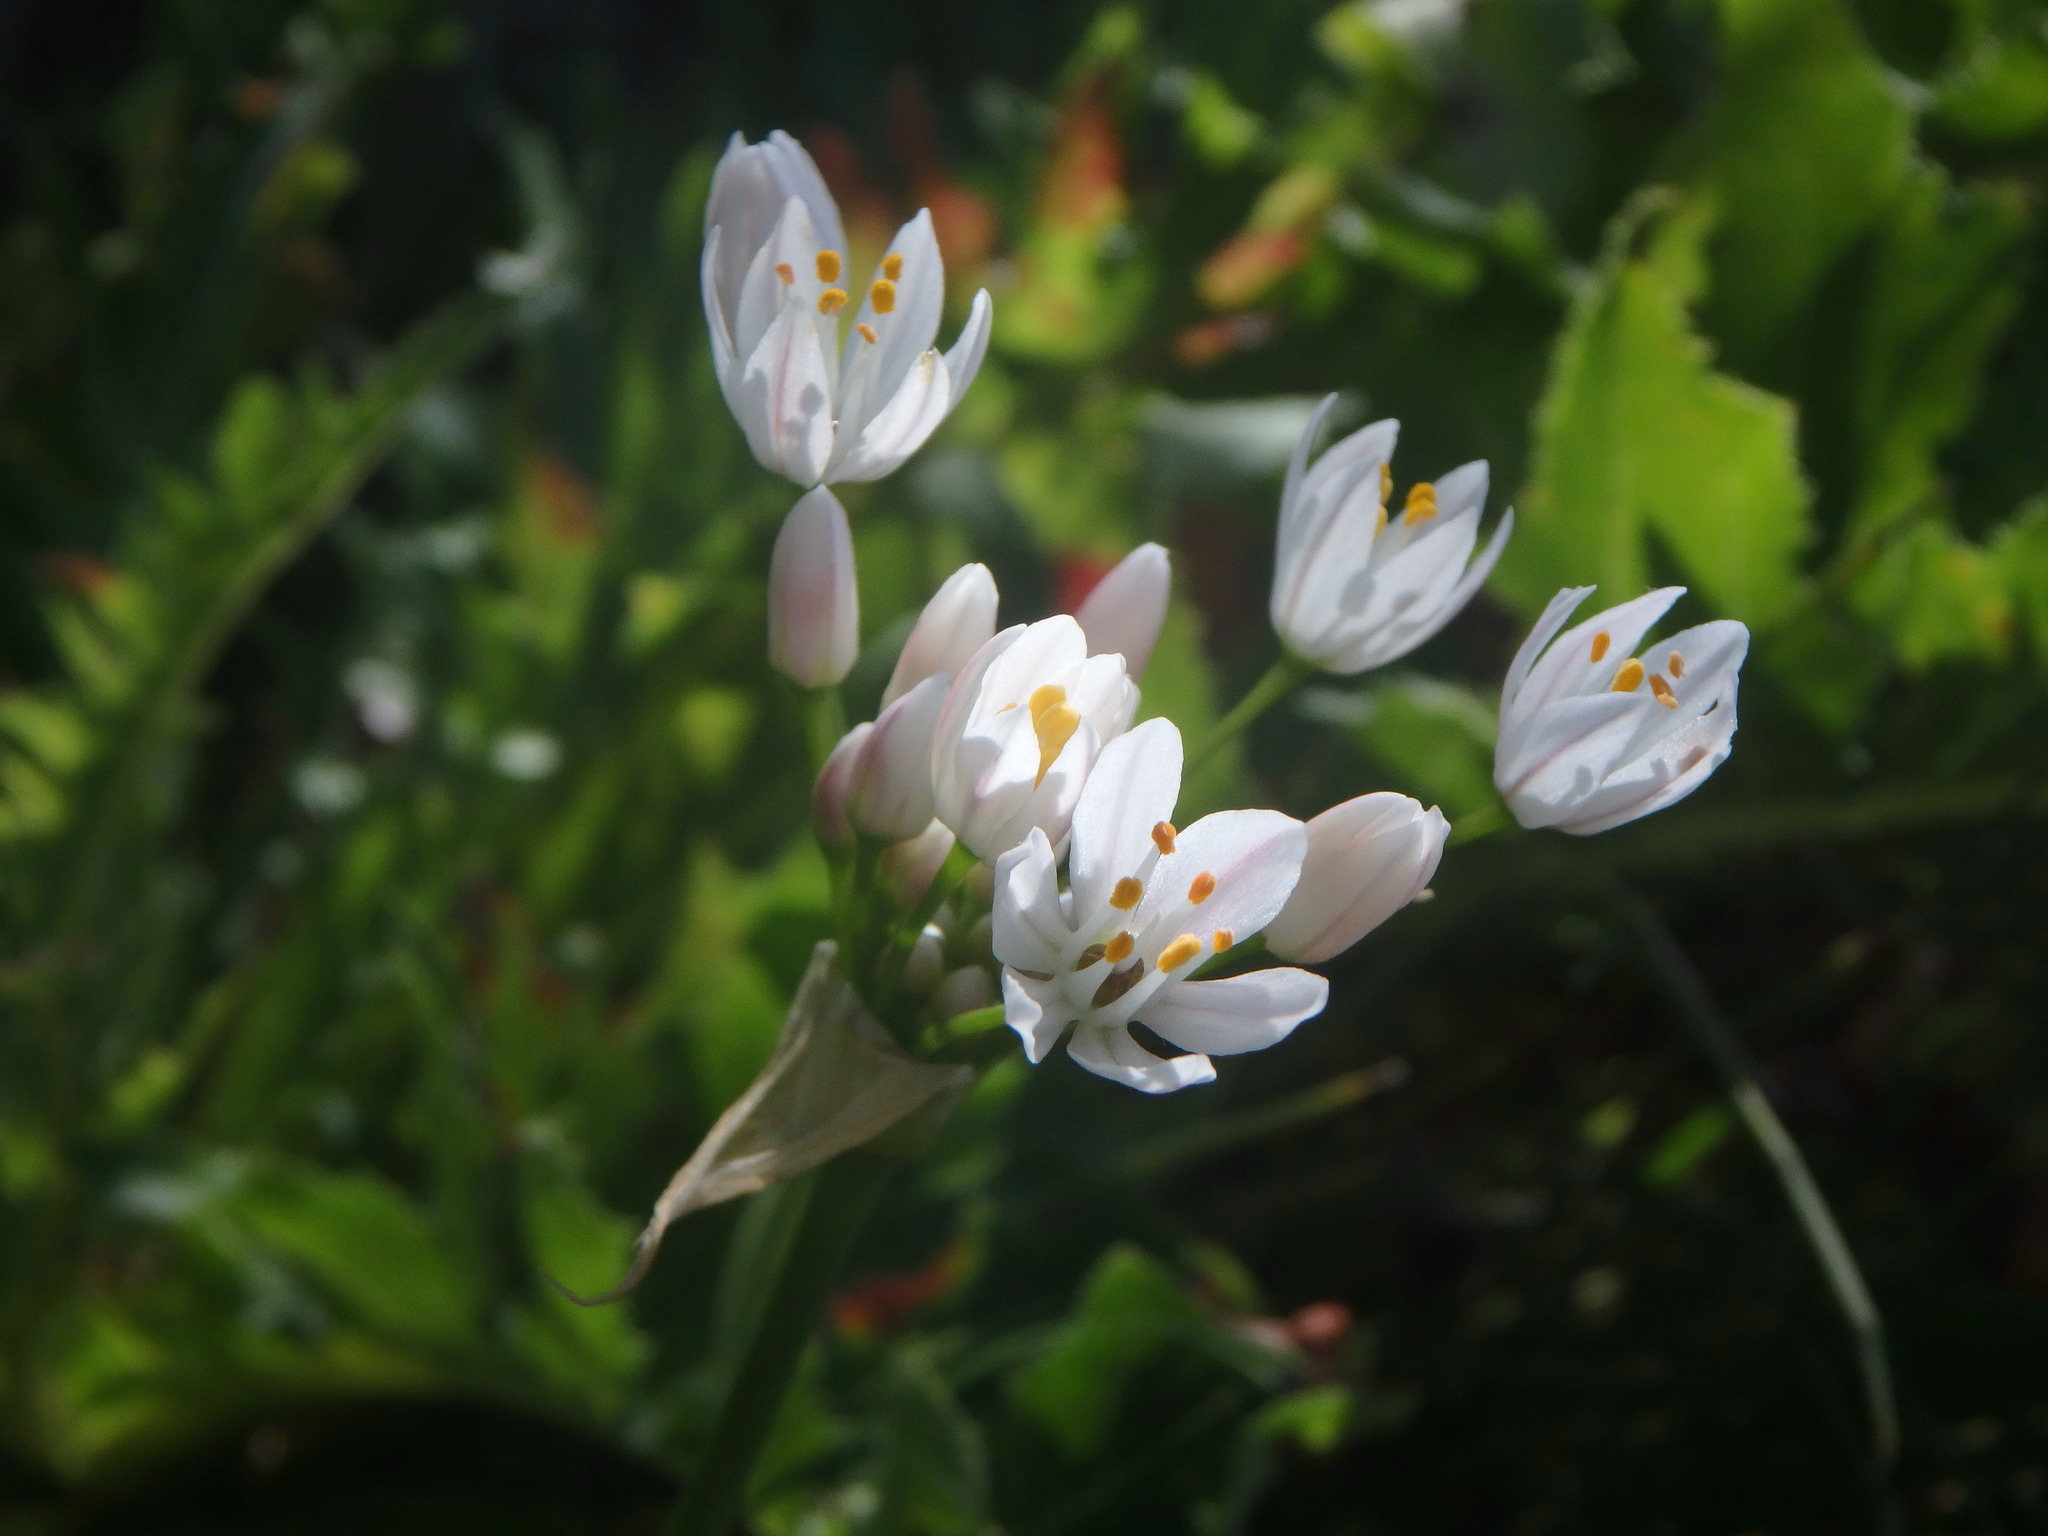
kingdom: Plantae
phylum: Tracheophyta
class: Liliopsida
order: Asparagales
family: Amaryllidaceae
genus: Allium
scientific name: Allium canariense
